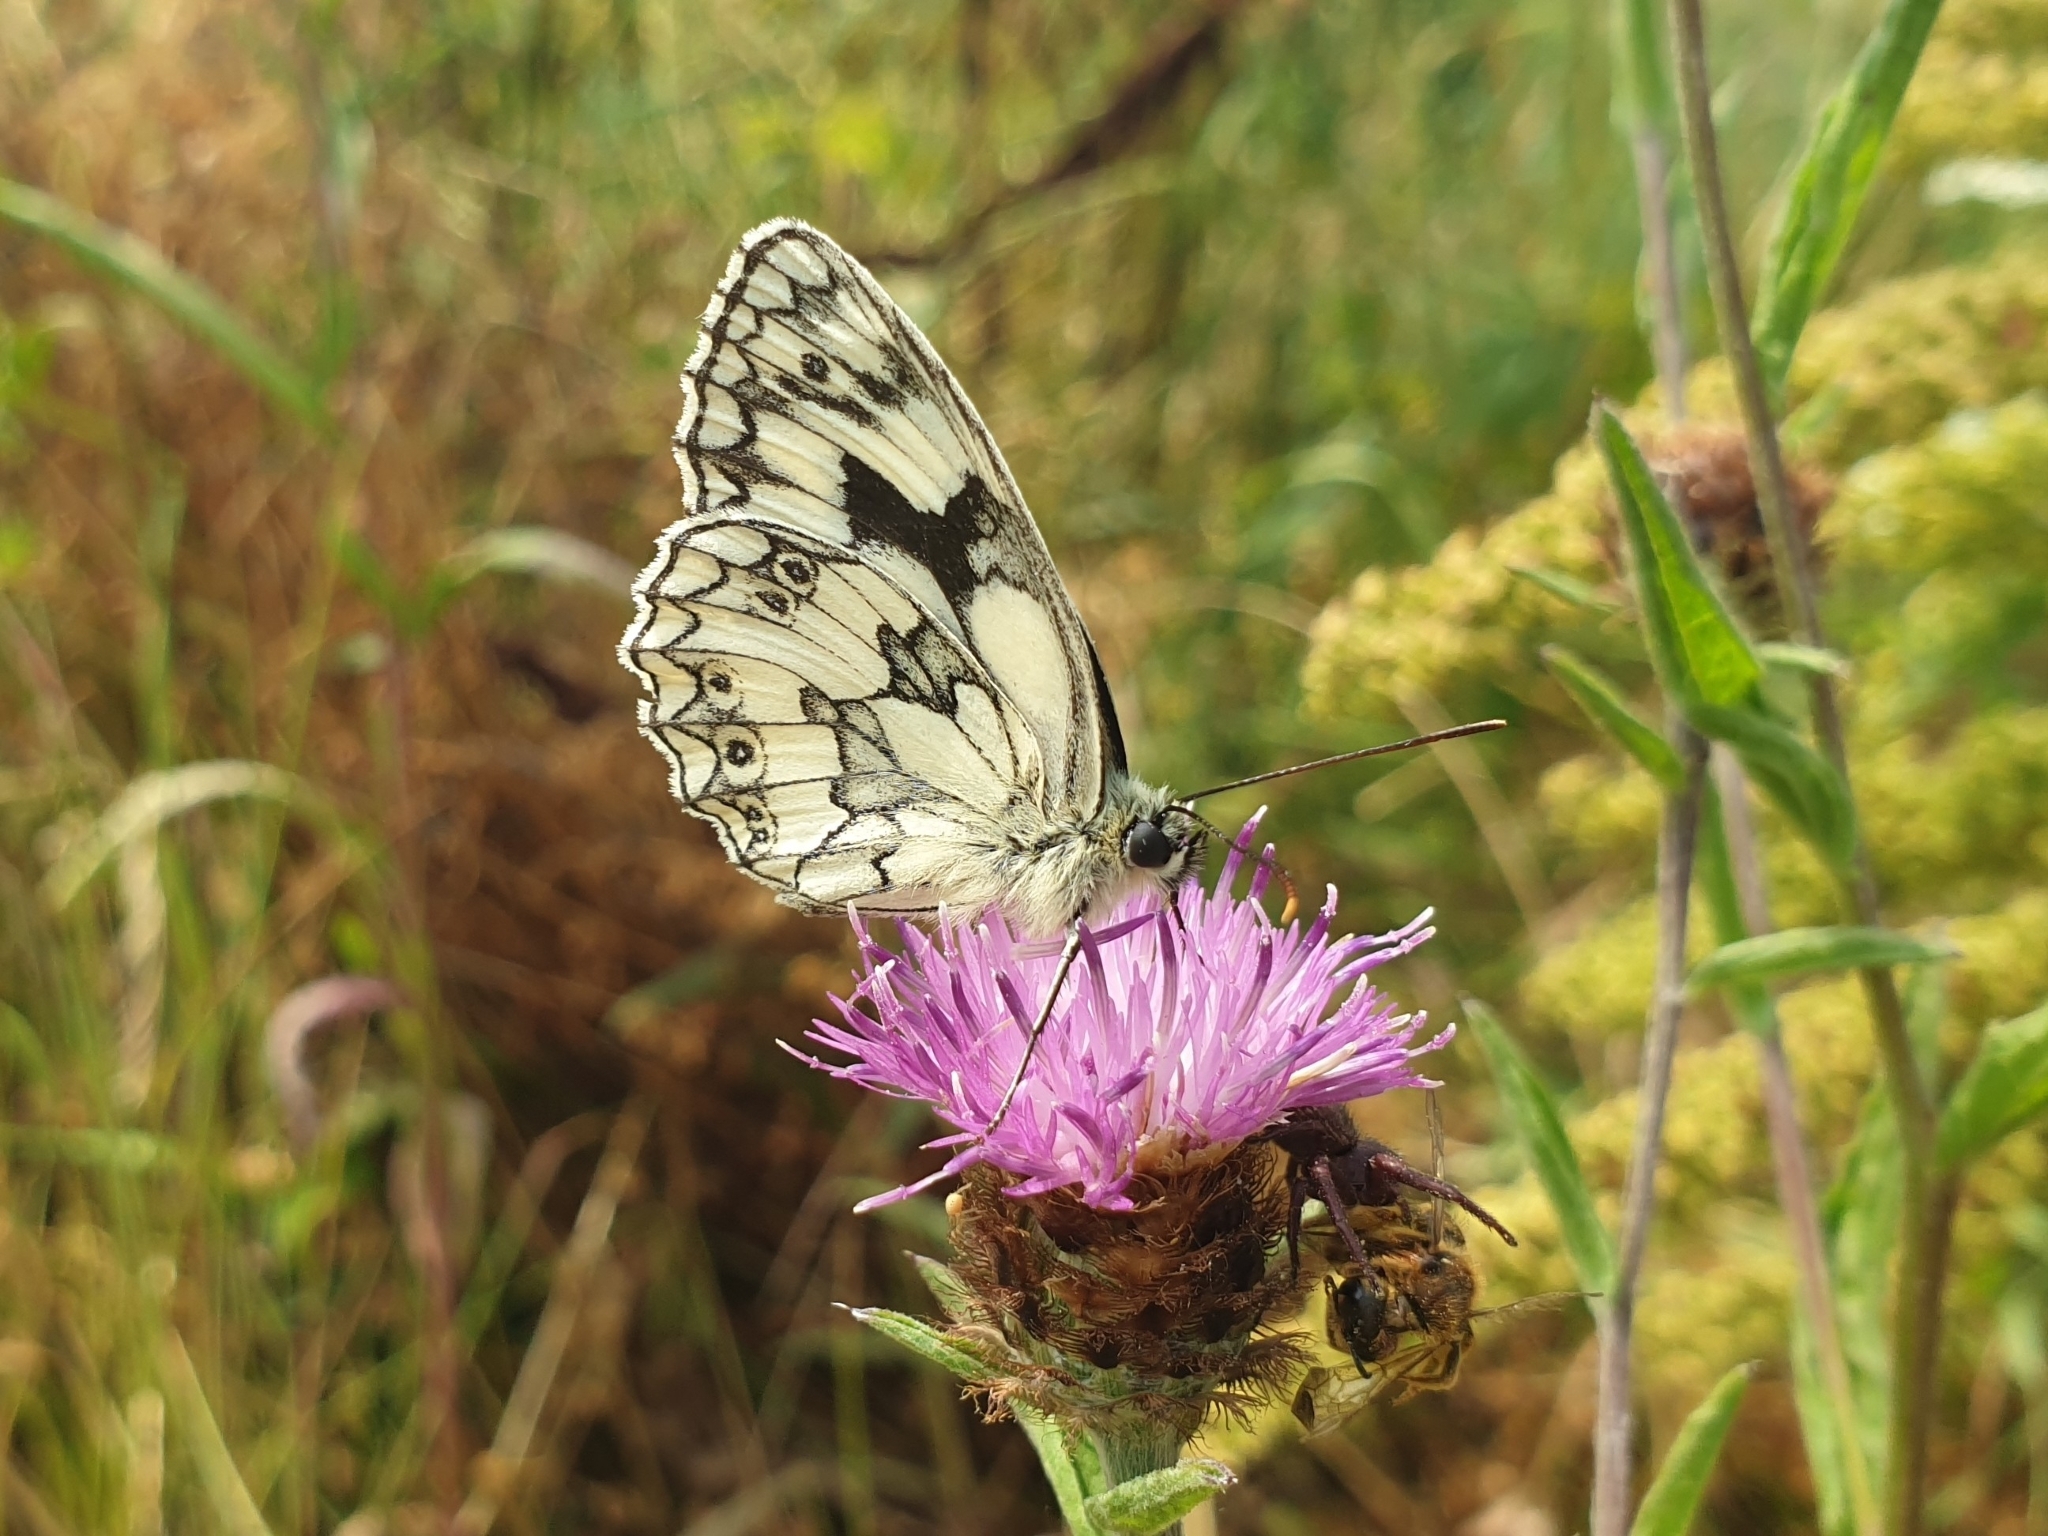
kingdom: Animalia
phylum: Arthropoda
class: Insecta
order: Lepidoptera
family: Nymphalidae
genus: Melanargia
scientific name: Melanargia galathea
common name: Marbled white
